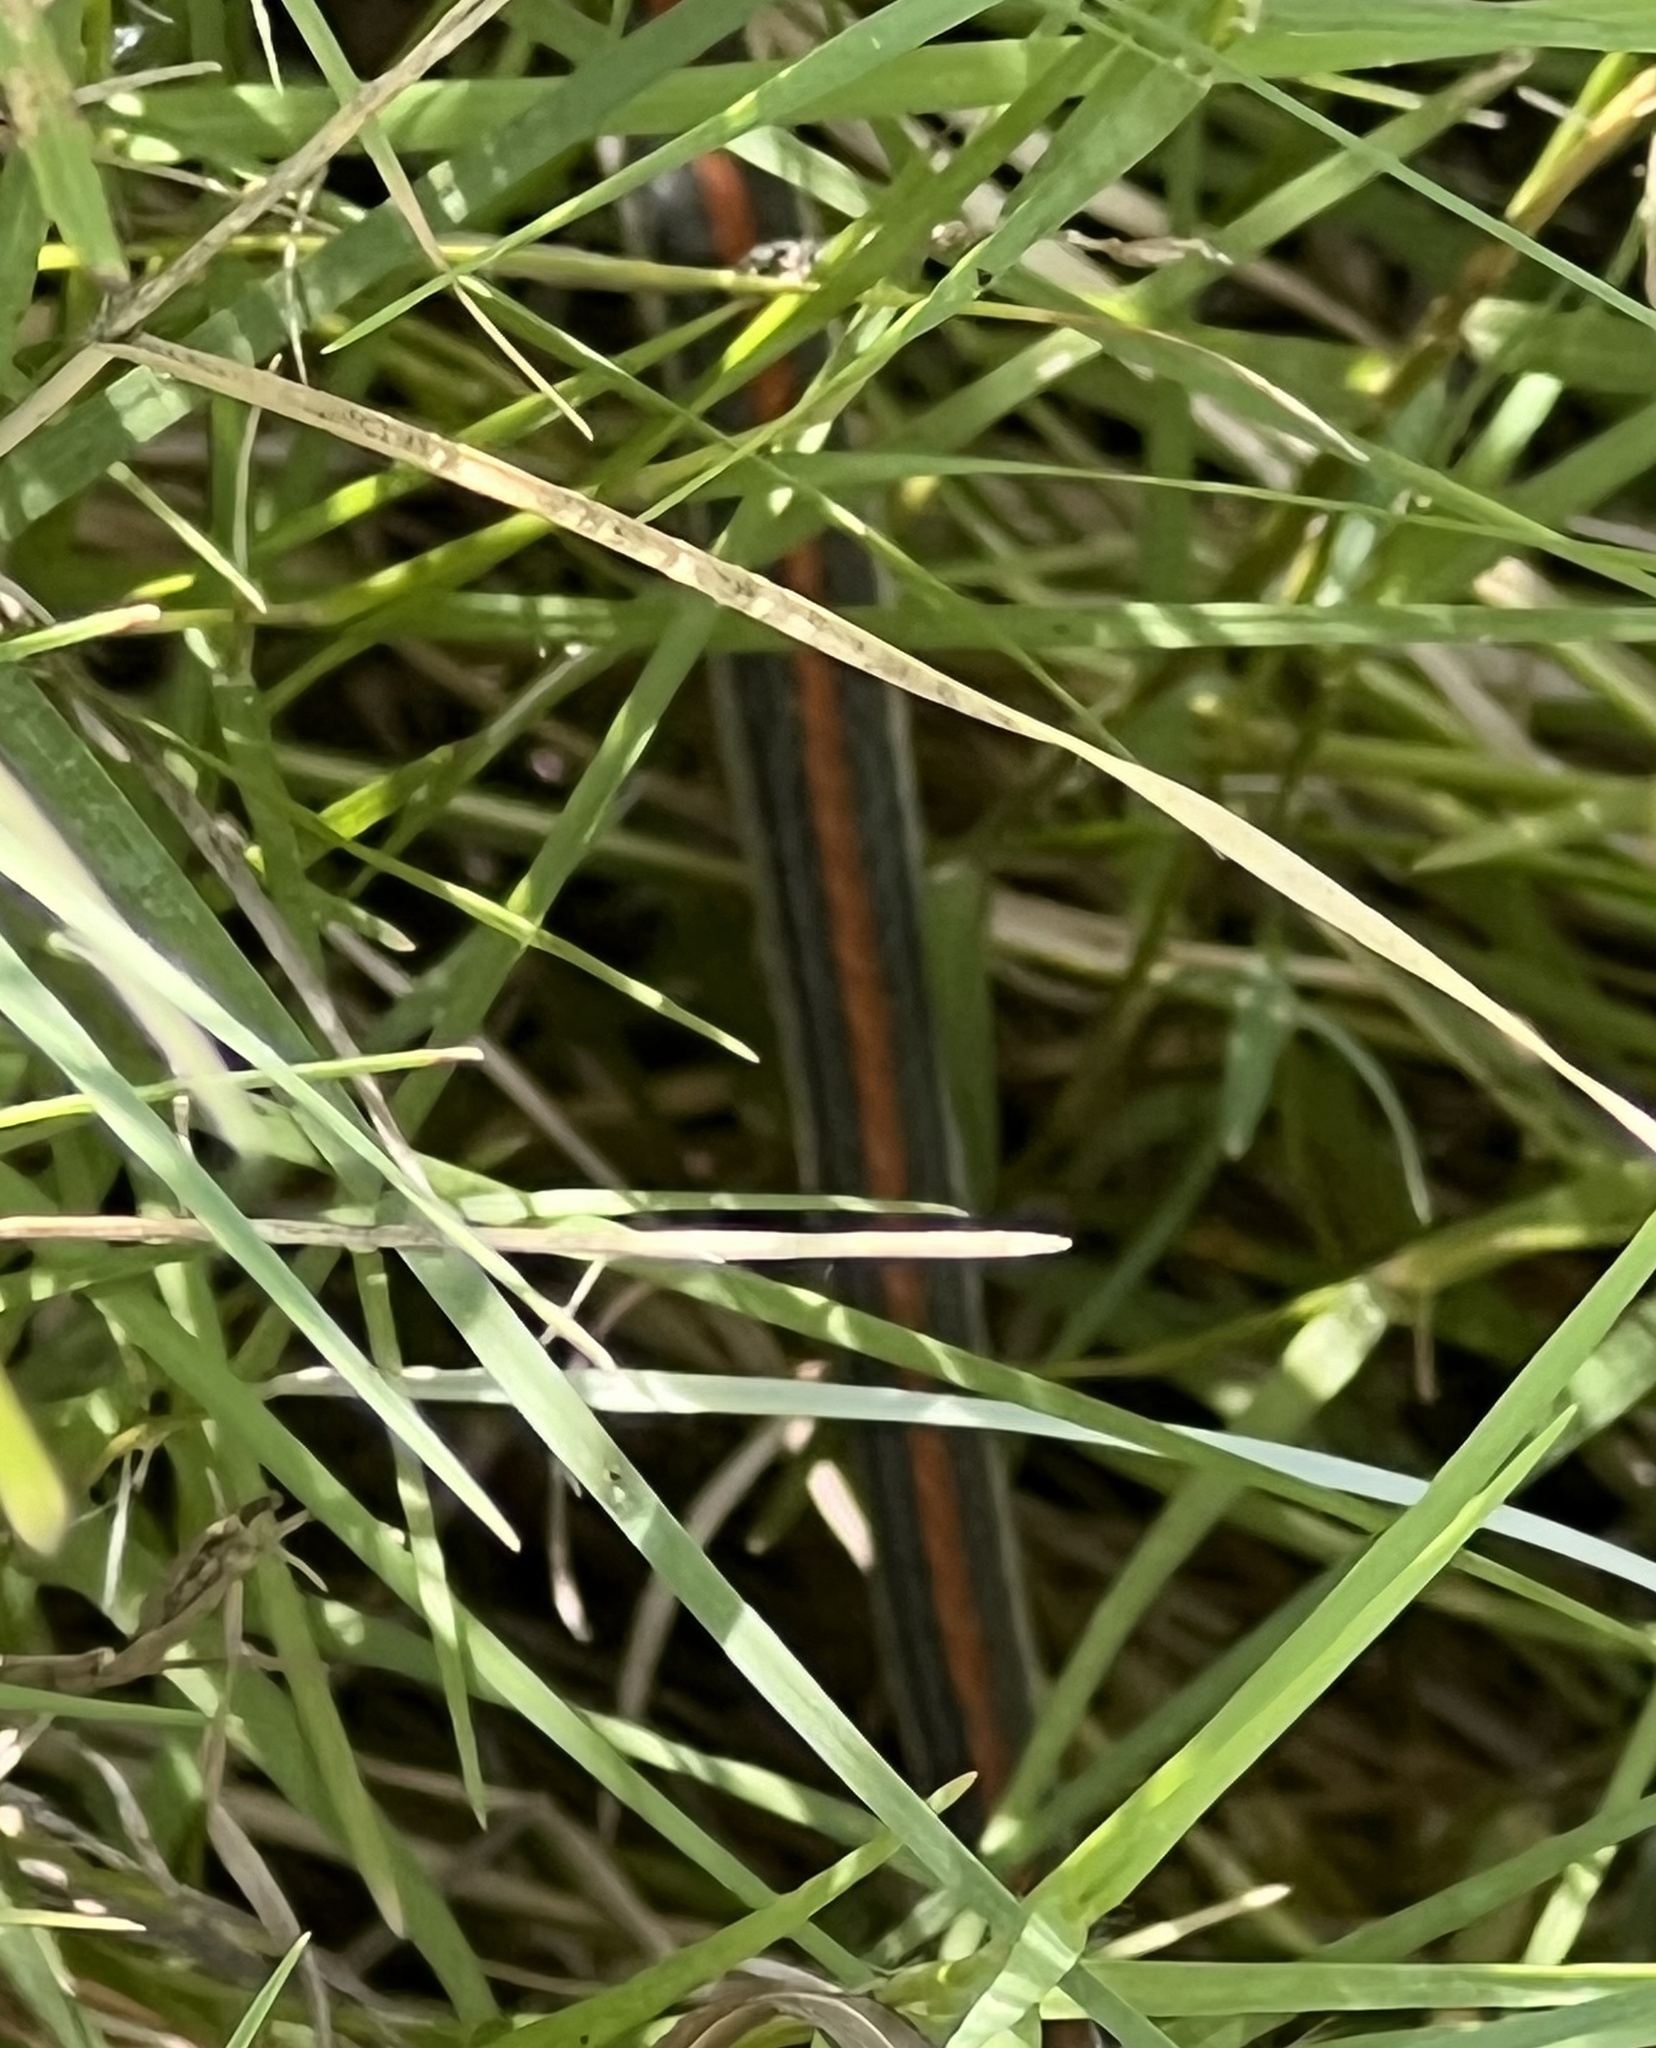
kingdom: Animalia
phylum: Chordata
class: Squamata
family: Colubridae
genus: Thamnophis
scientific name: Thamnophis proximus
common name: Western ribbon snake
